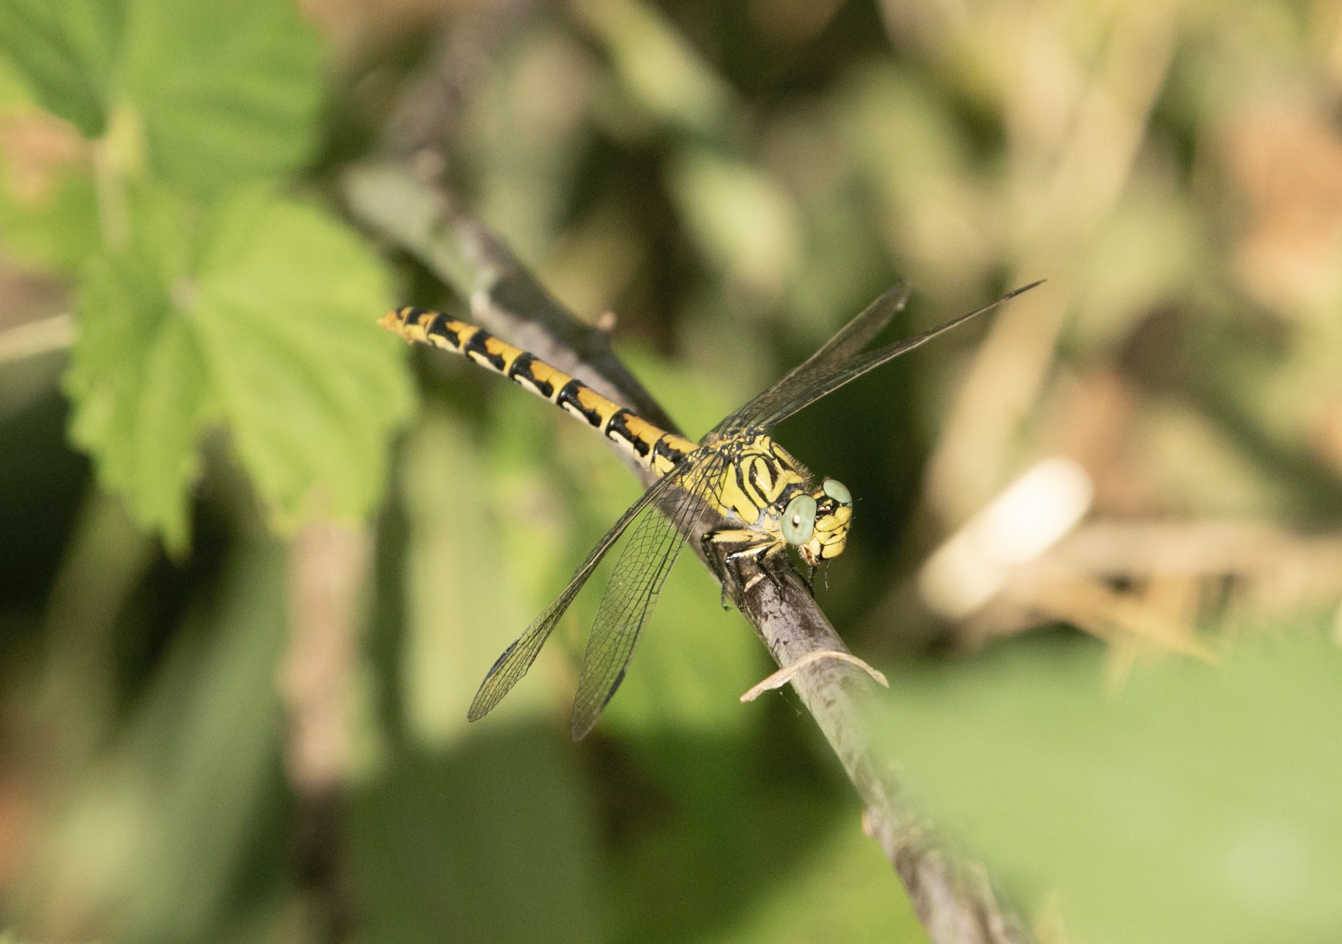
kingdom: Animalia
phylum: Arthropoda
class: Insecta
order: Odonata
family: Gomphidae
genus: Onychogomphus
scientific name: Onychogomphus forcipatus
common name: Small pincertail
